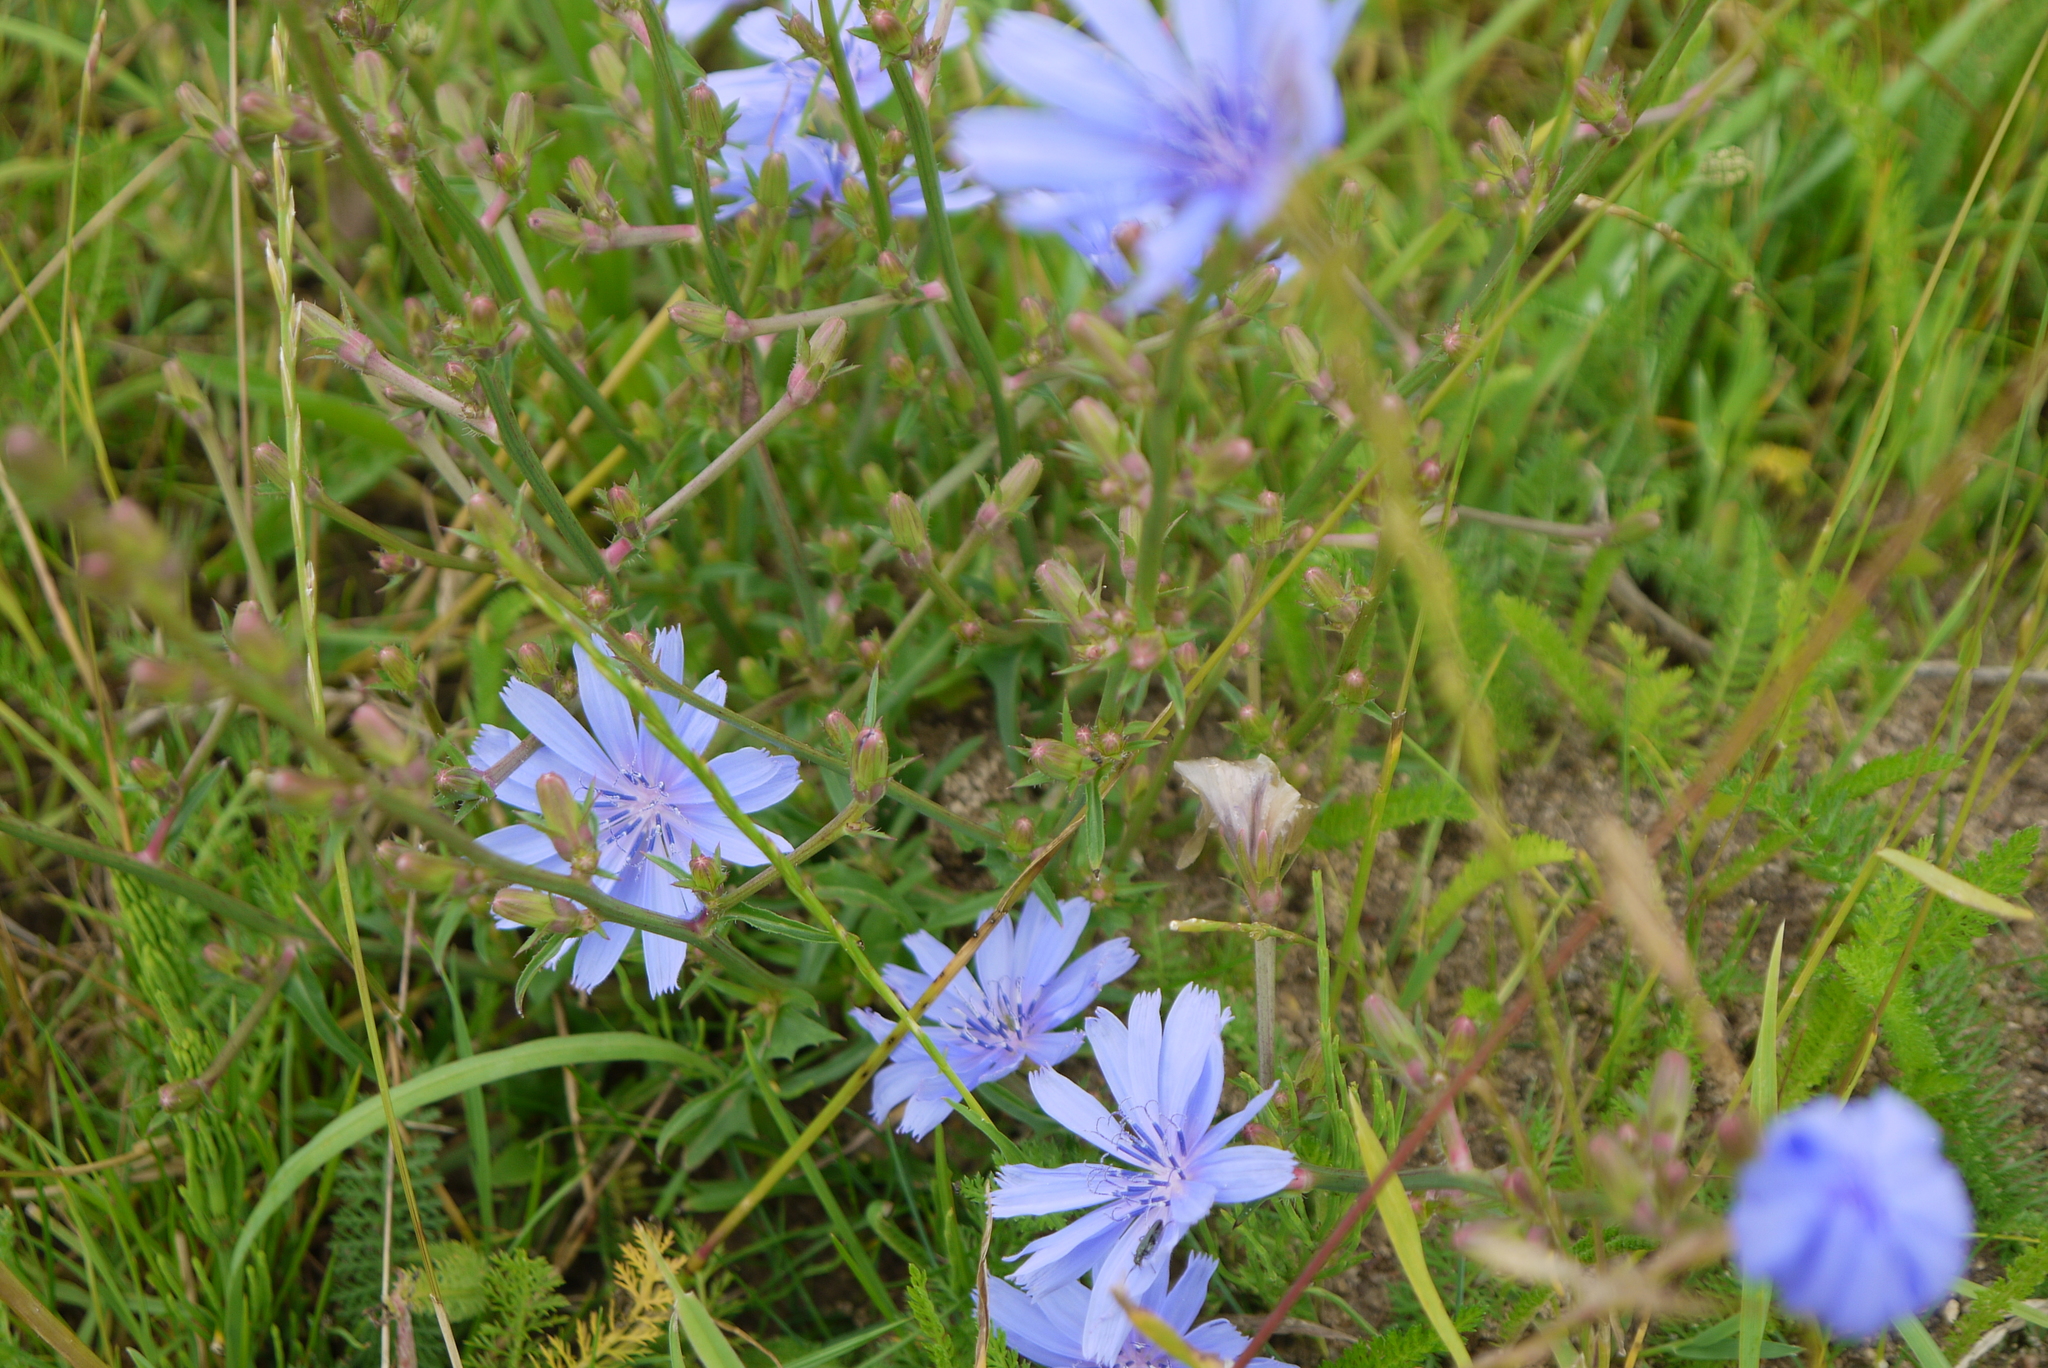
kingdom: Plantae
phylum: Tracheophyta
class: Magnoliopsida
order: Asterales
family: Asteraceae
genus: Cichorium
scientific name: Cichorium intybus
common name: Chicory
